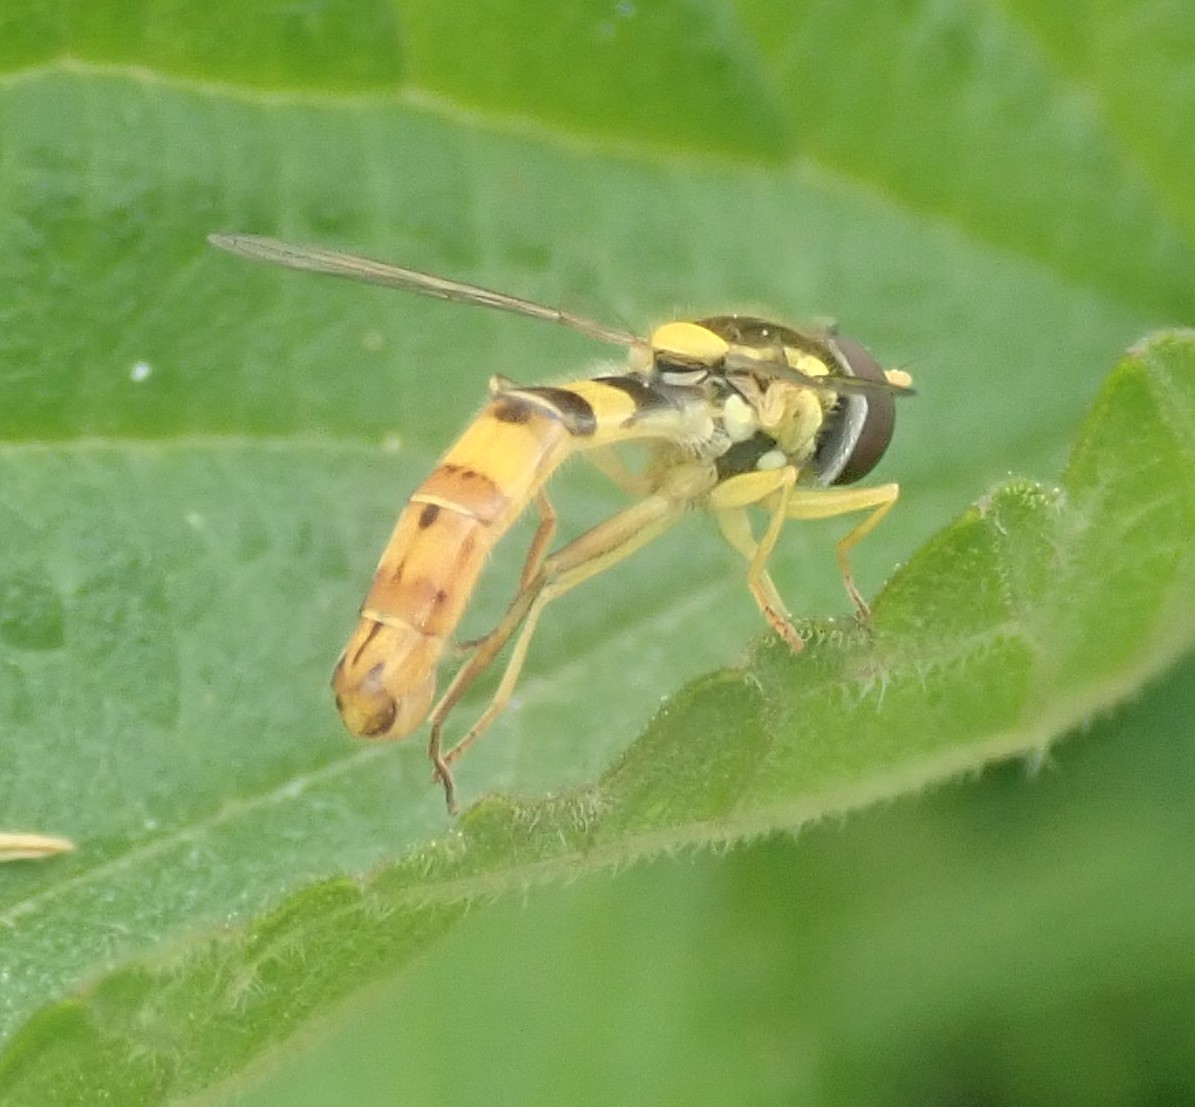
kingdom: Animalia
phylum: Arthropoda
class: Insecta
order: Diptera
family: Syrphidae
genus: Sphaerophoria
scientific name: Sphaerophoria scripta
